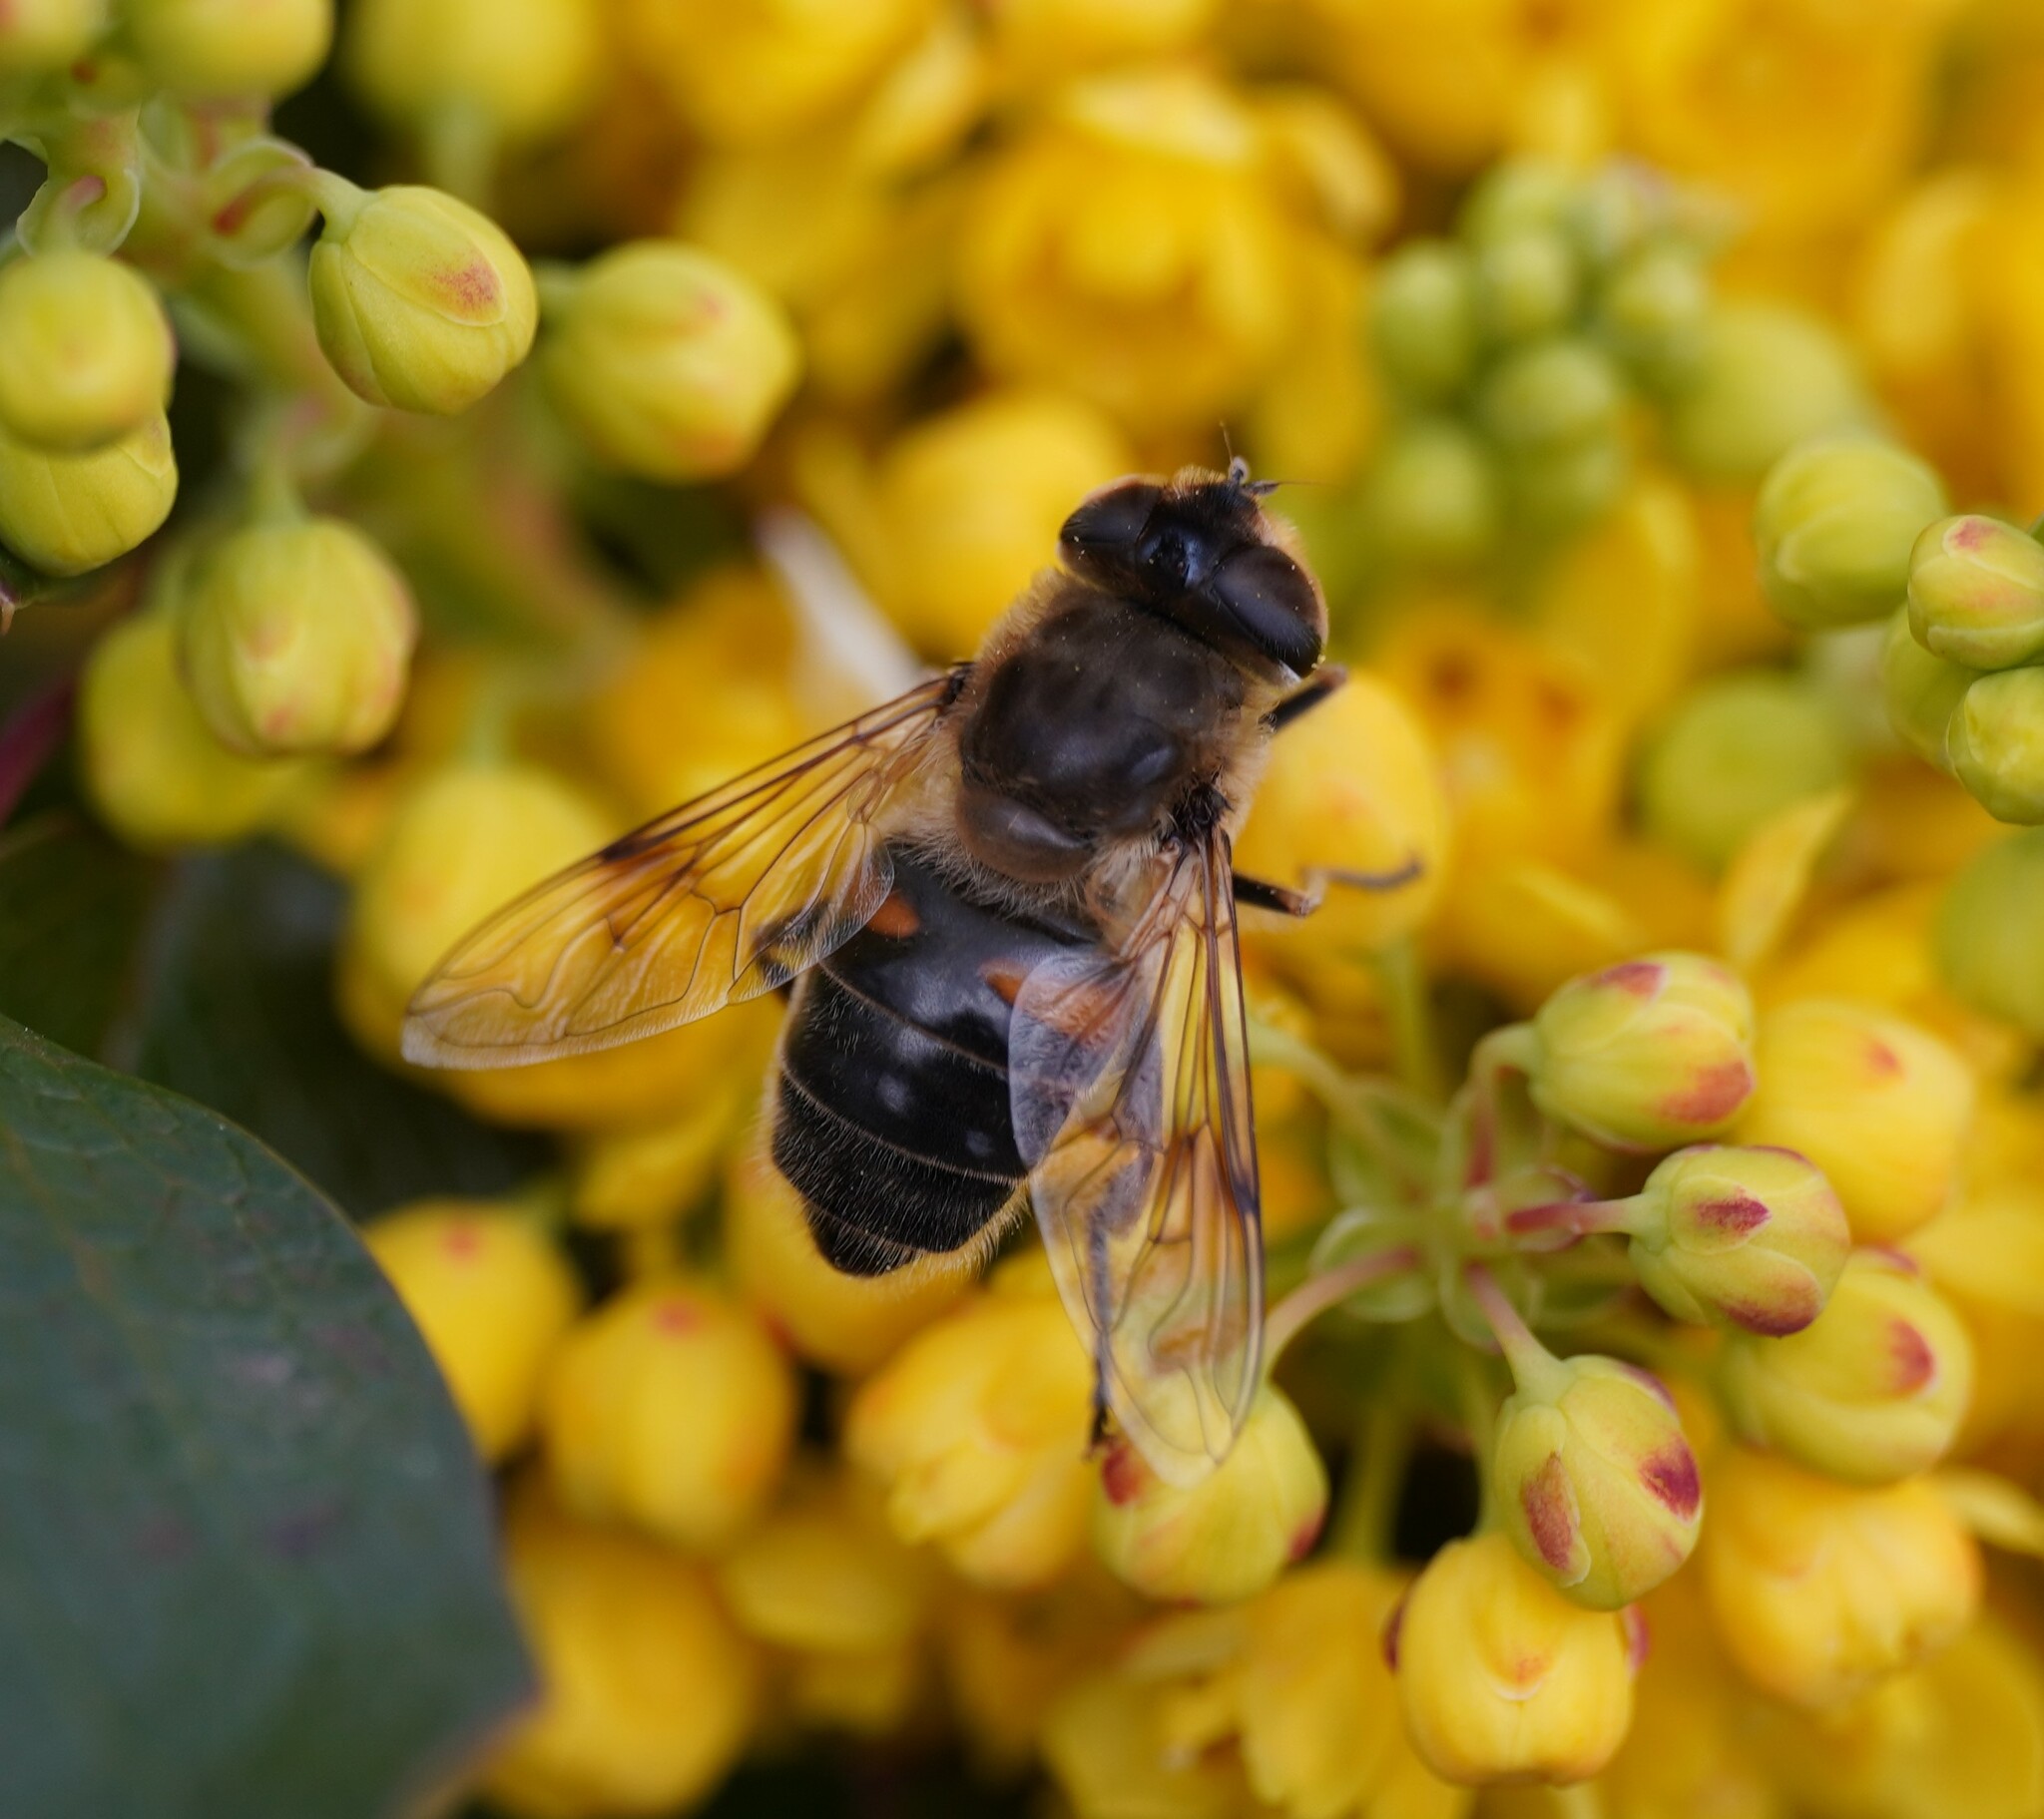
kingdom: Animalia
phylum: Arthropoda
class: Insecta
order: Diptera
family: Syrphidae
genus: Eristalis
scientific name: Eristalis tenax
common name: Drone fly
